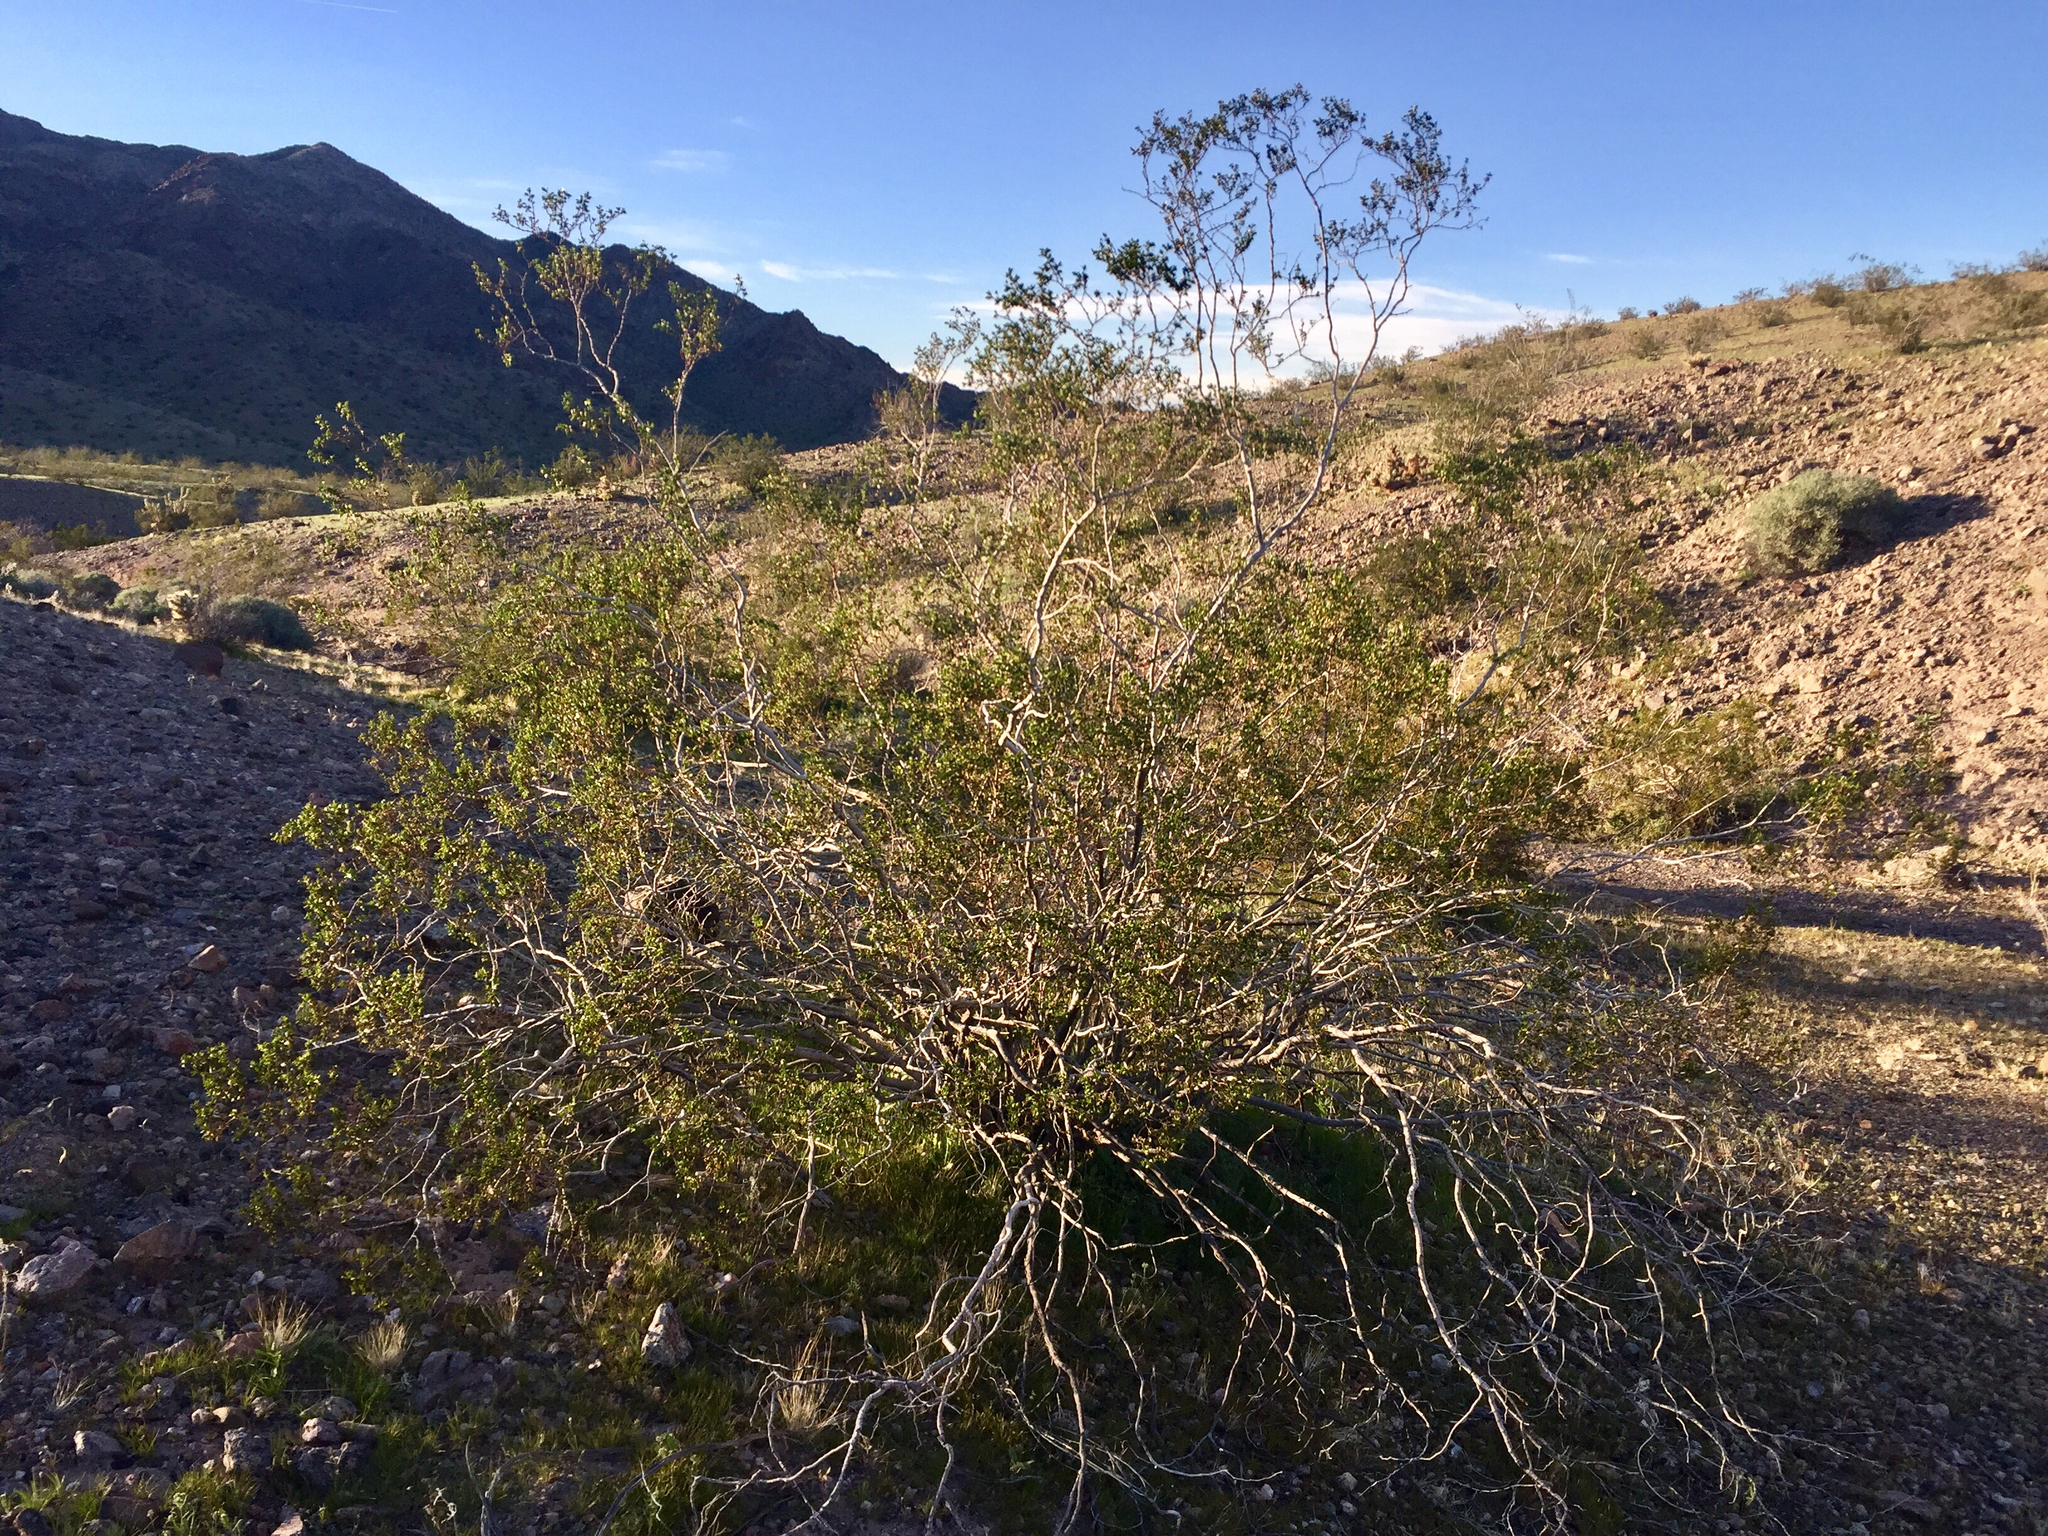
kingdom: Plantae
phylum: Tracheophyta
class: Magnoliopsida
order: Zygophyllales
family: Zygophyllaceae
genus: Larrea
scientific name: Larrea tridentata
